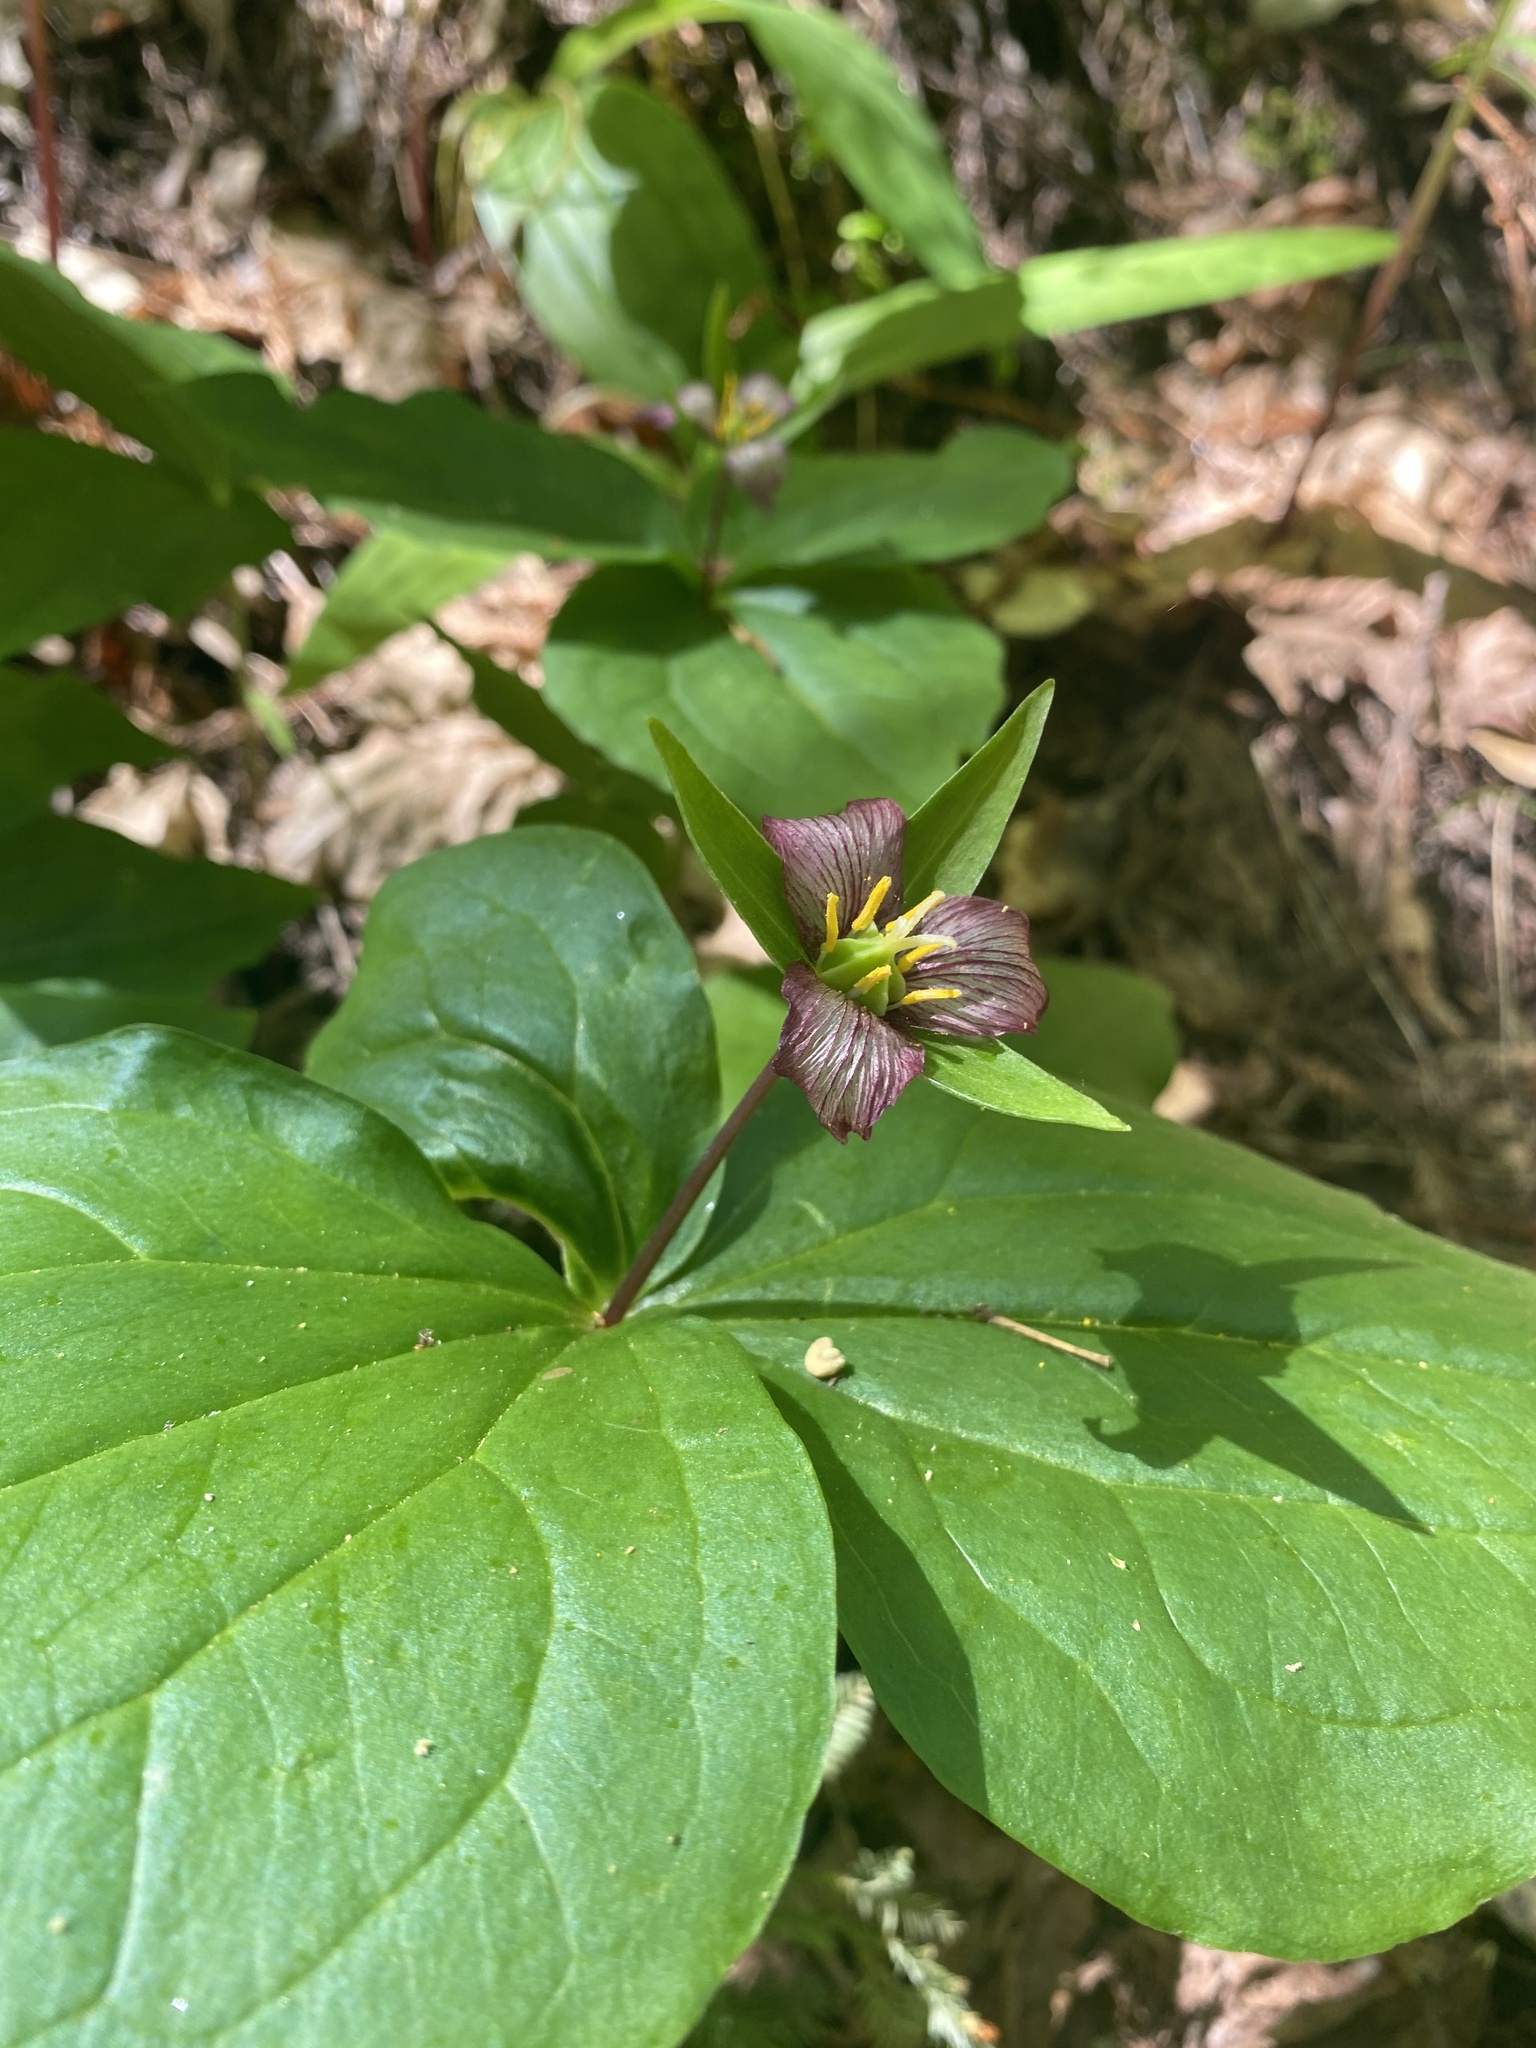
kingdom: Plantae
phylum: Tracheophyta
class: Liliopsida
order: Liliales
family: Melanthiaceae
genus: Trillium
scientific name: Trillium ovatum
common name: Pacific trillium
